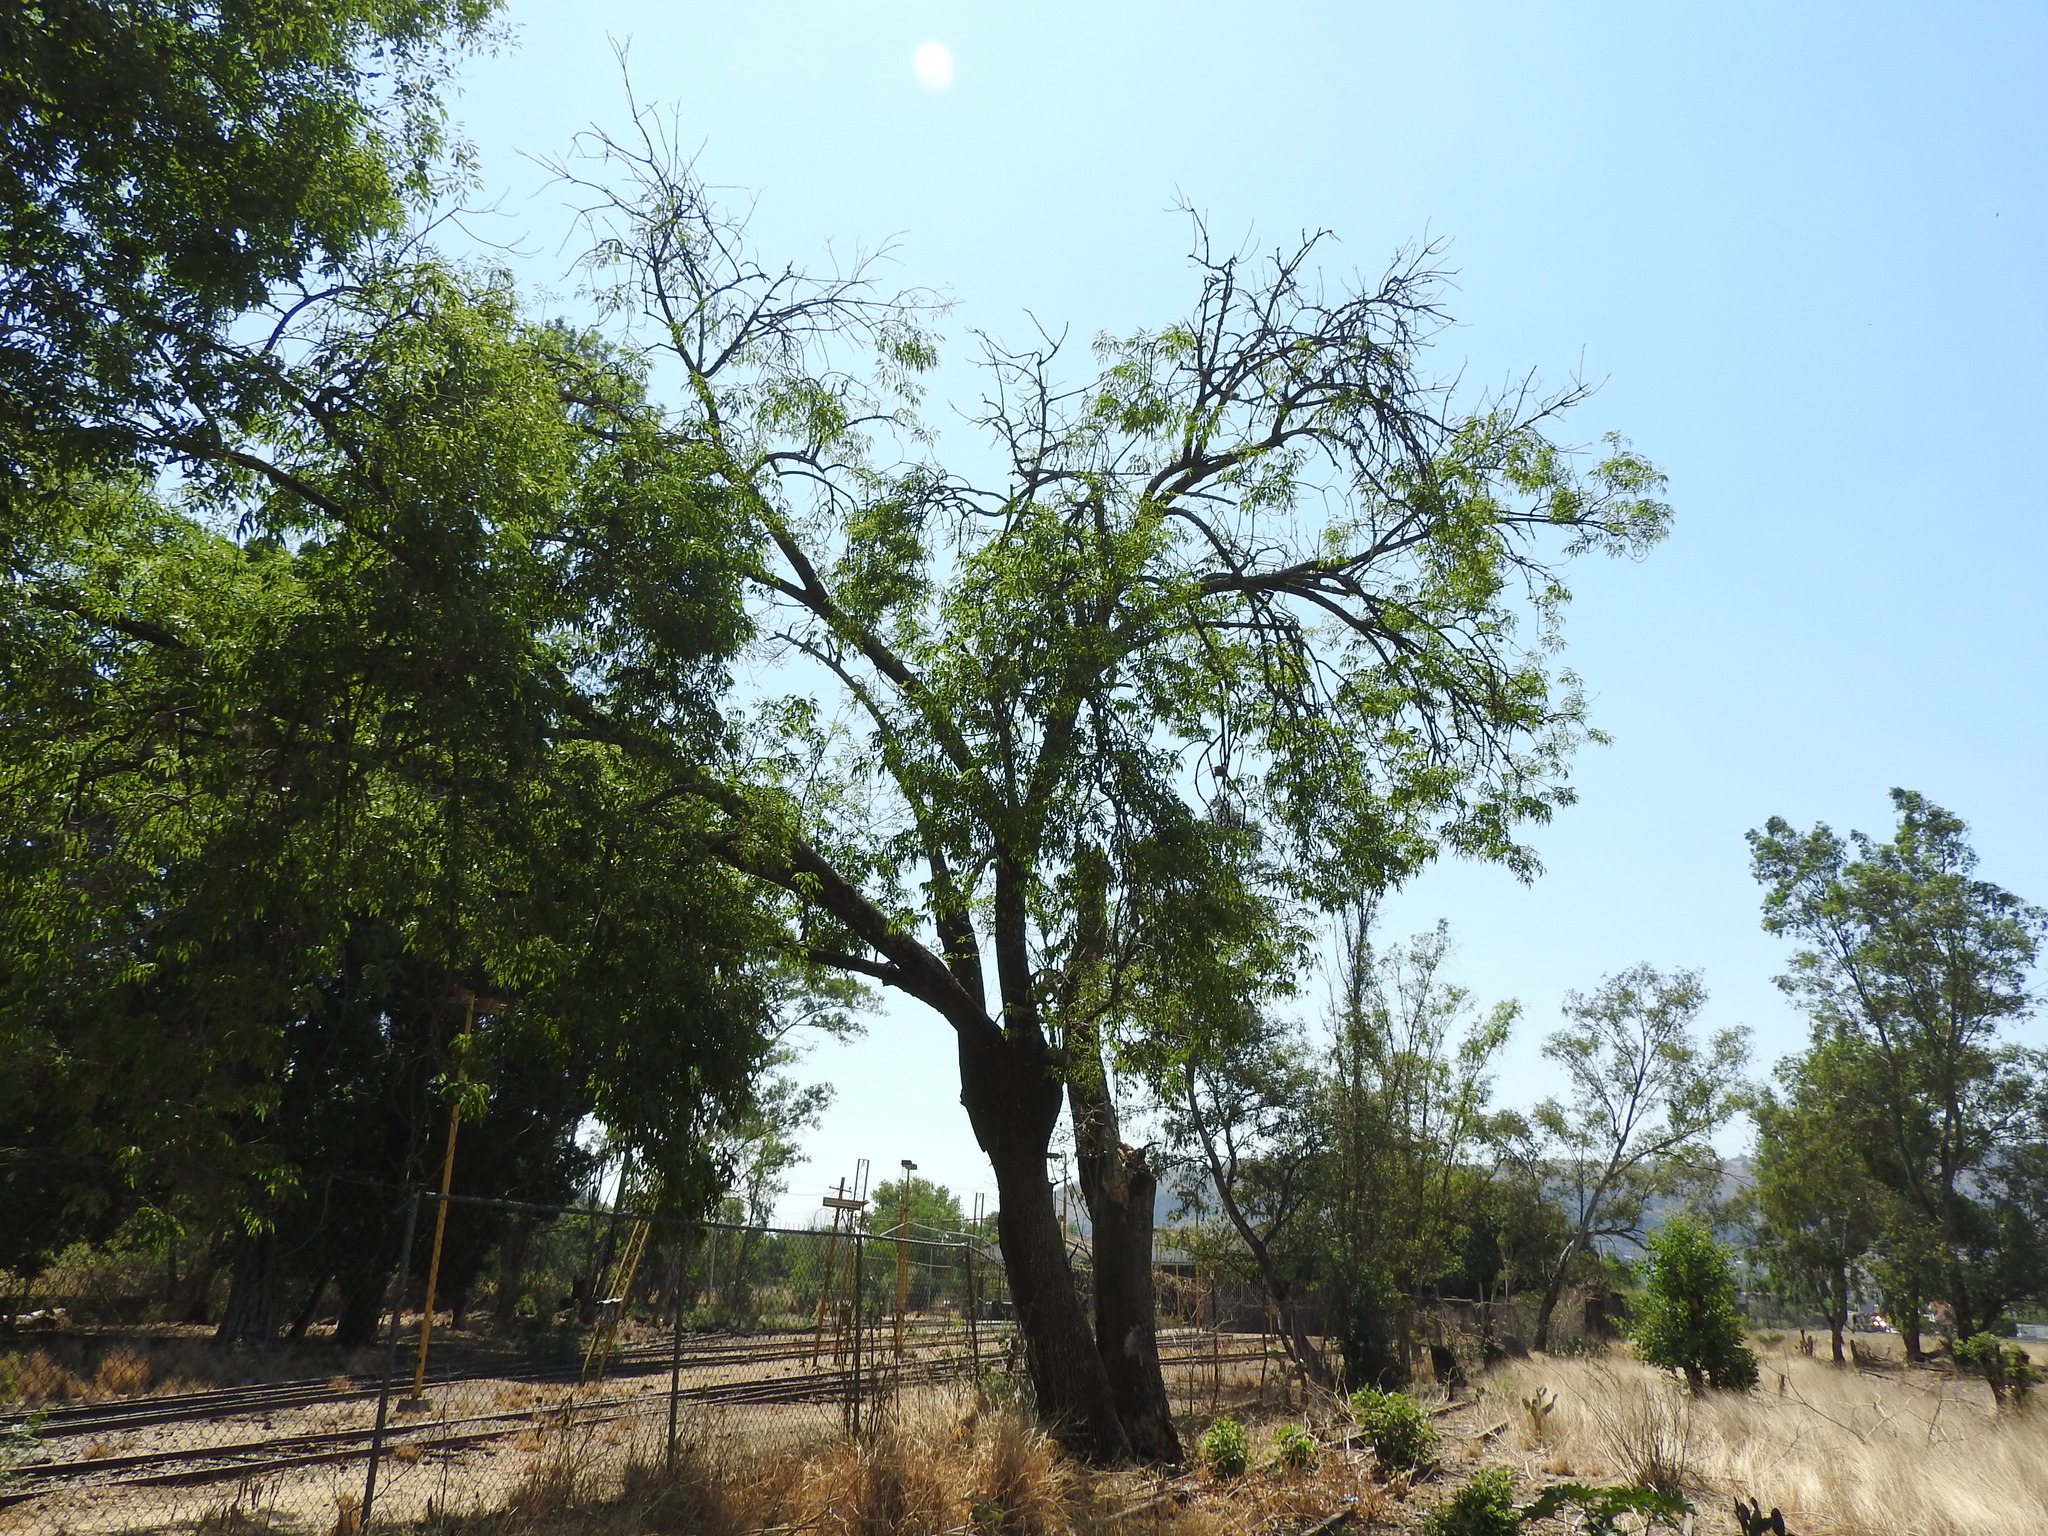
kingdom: Plantae
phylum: Tracheophyta
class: Magnoliopsida
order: Lamiales
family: Oleaceae
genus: Fraxinus
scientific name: Fraxinus uhdei
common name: Shamel ash
